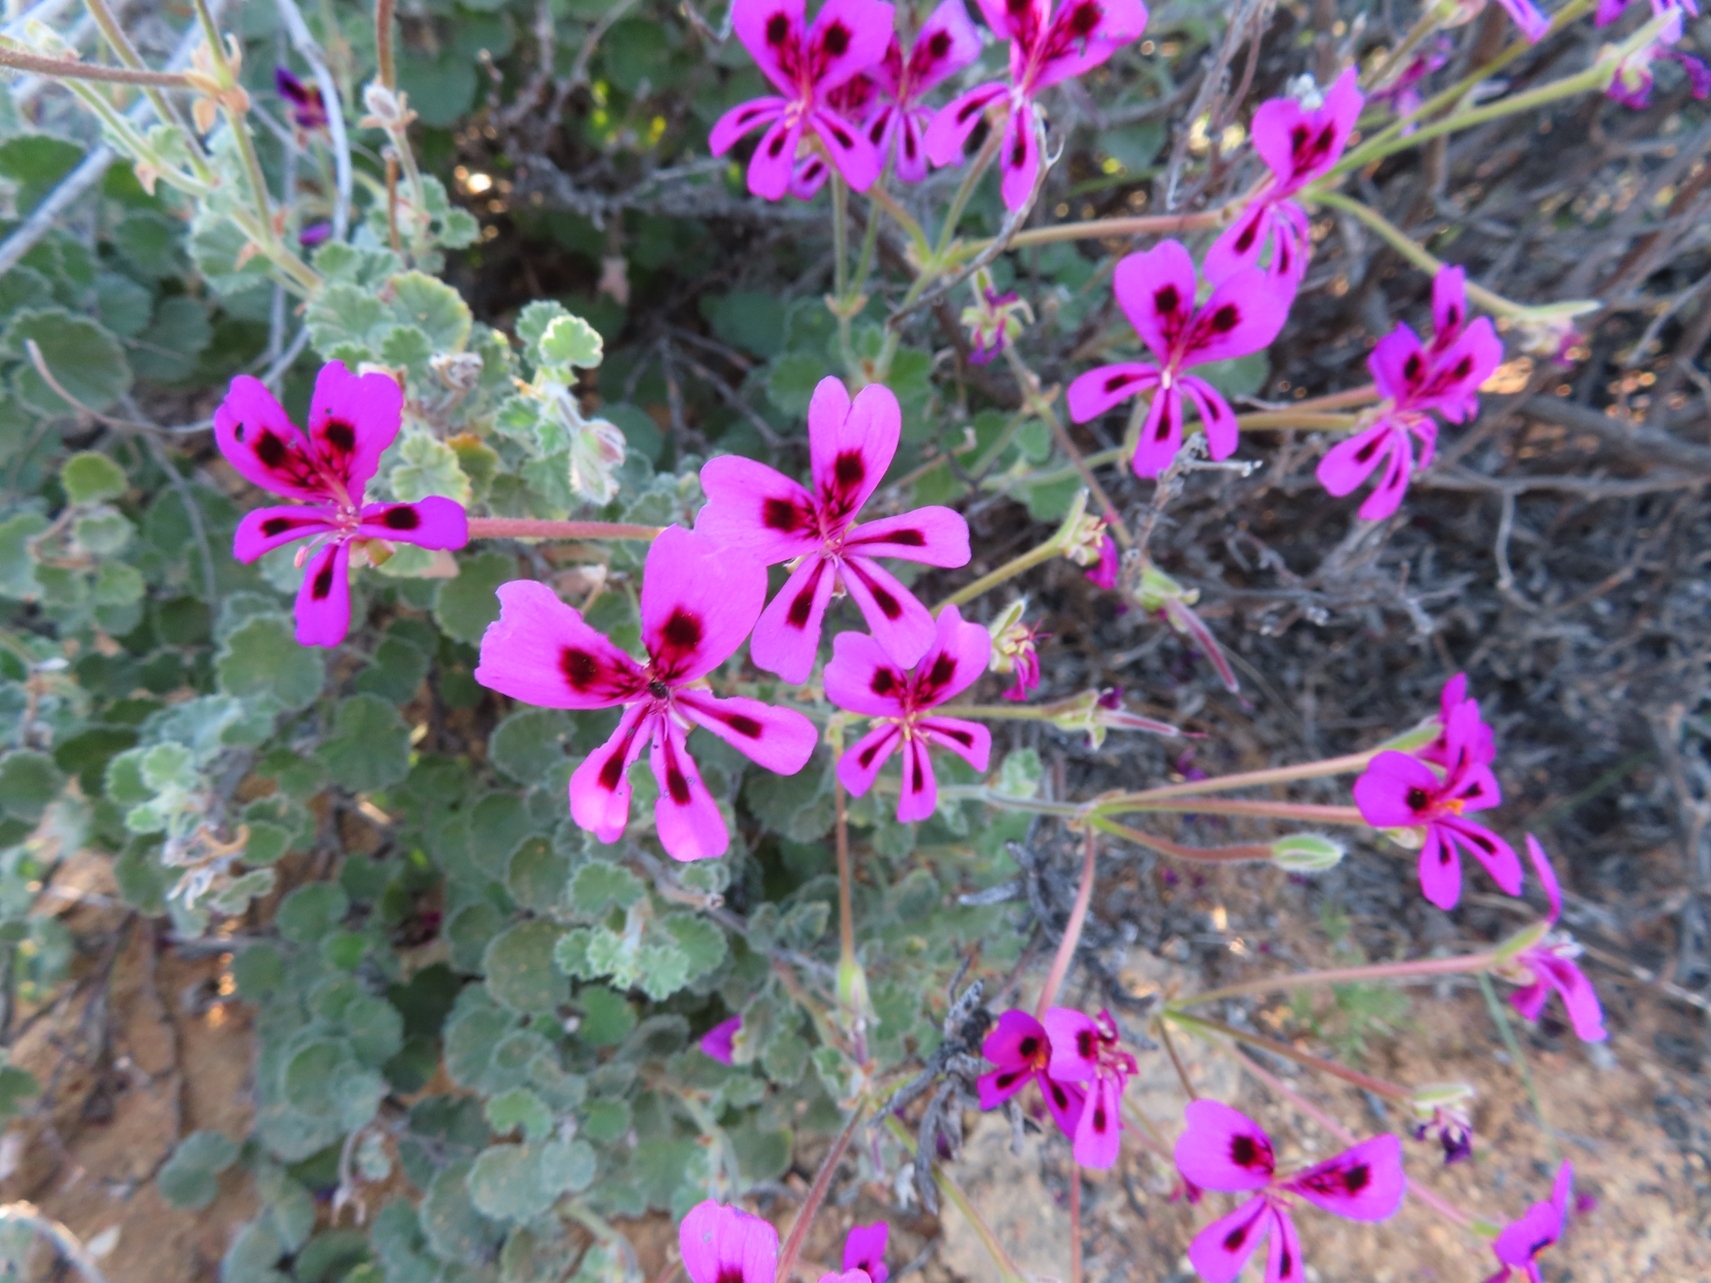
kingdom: Plantae
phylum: Tracheophyta
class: Magnoliopsida
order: Geraniales
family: Geraniaceae
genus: Pelargonium
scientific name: Pelargonium magenteum
